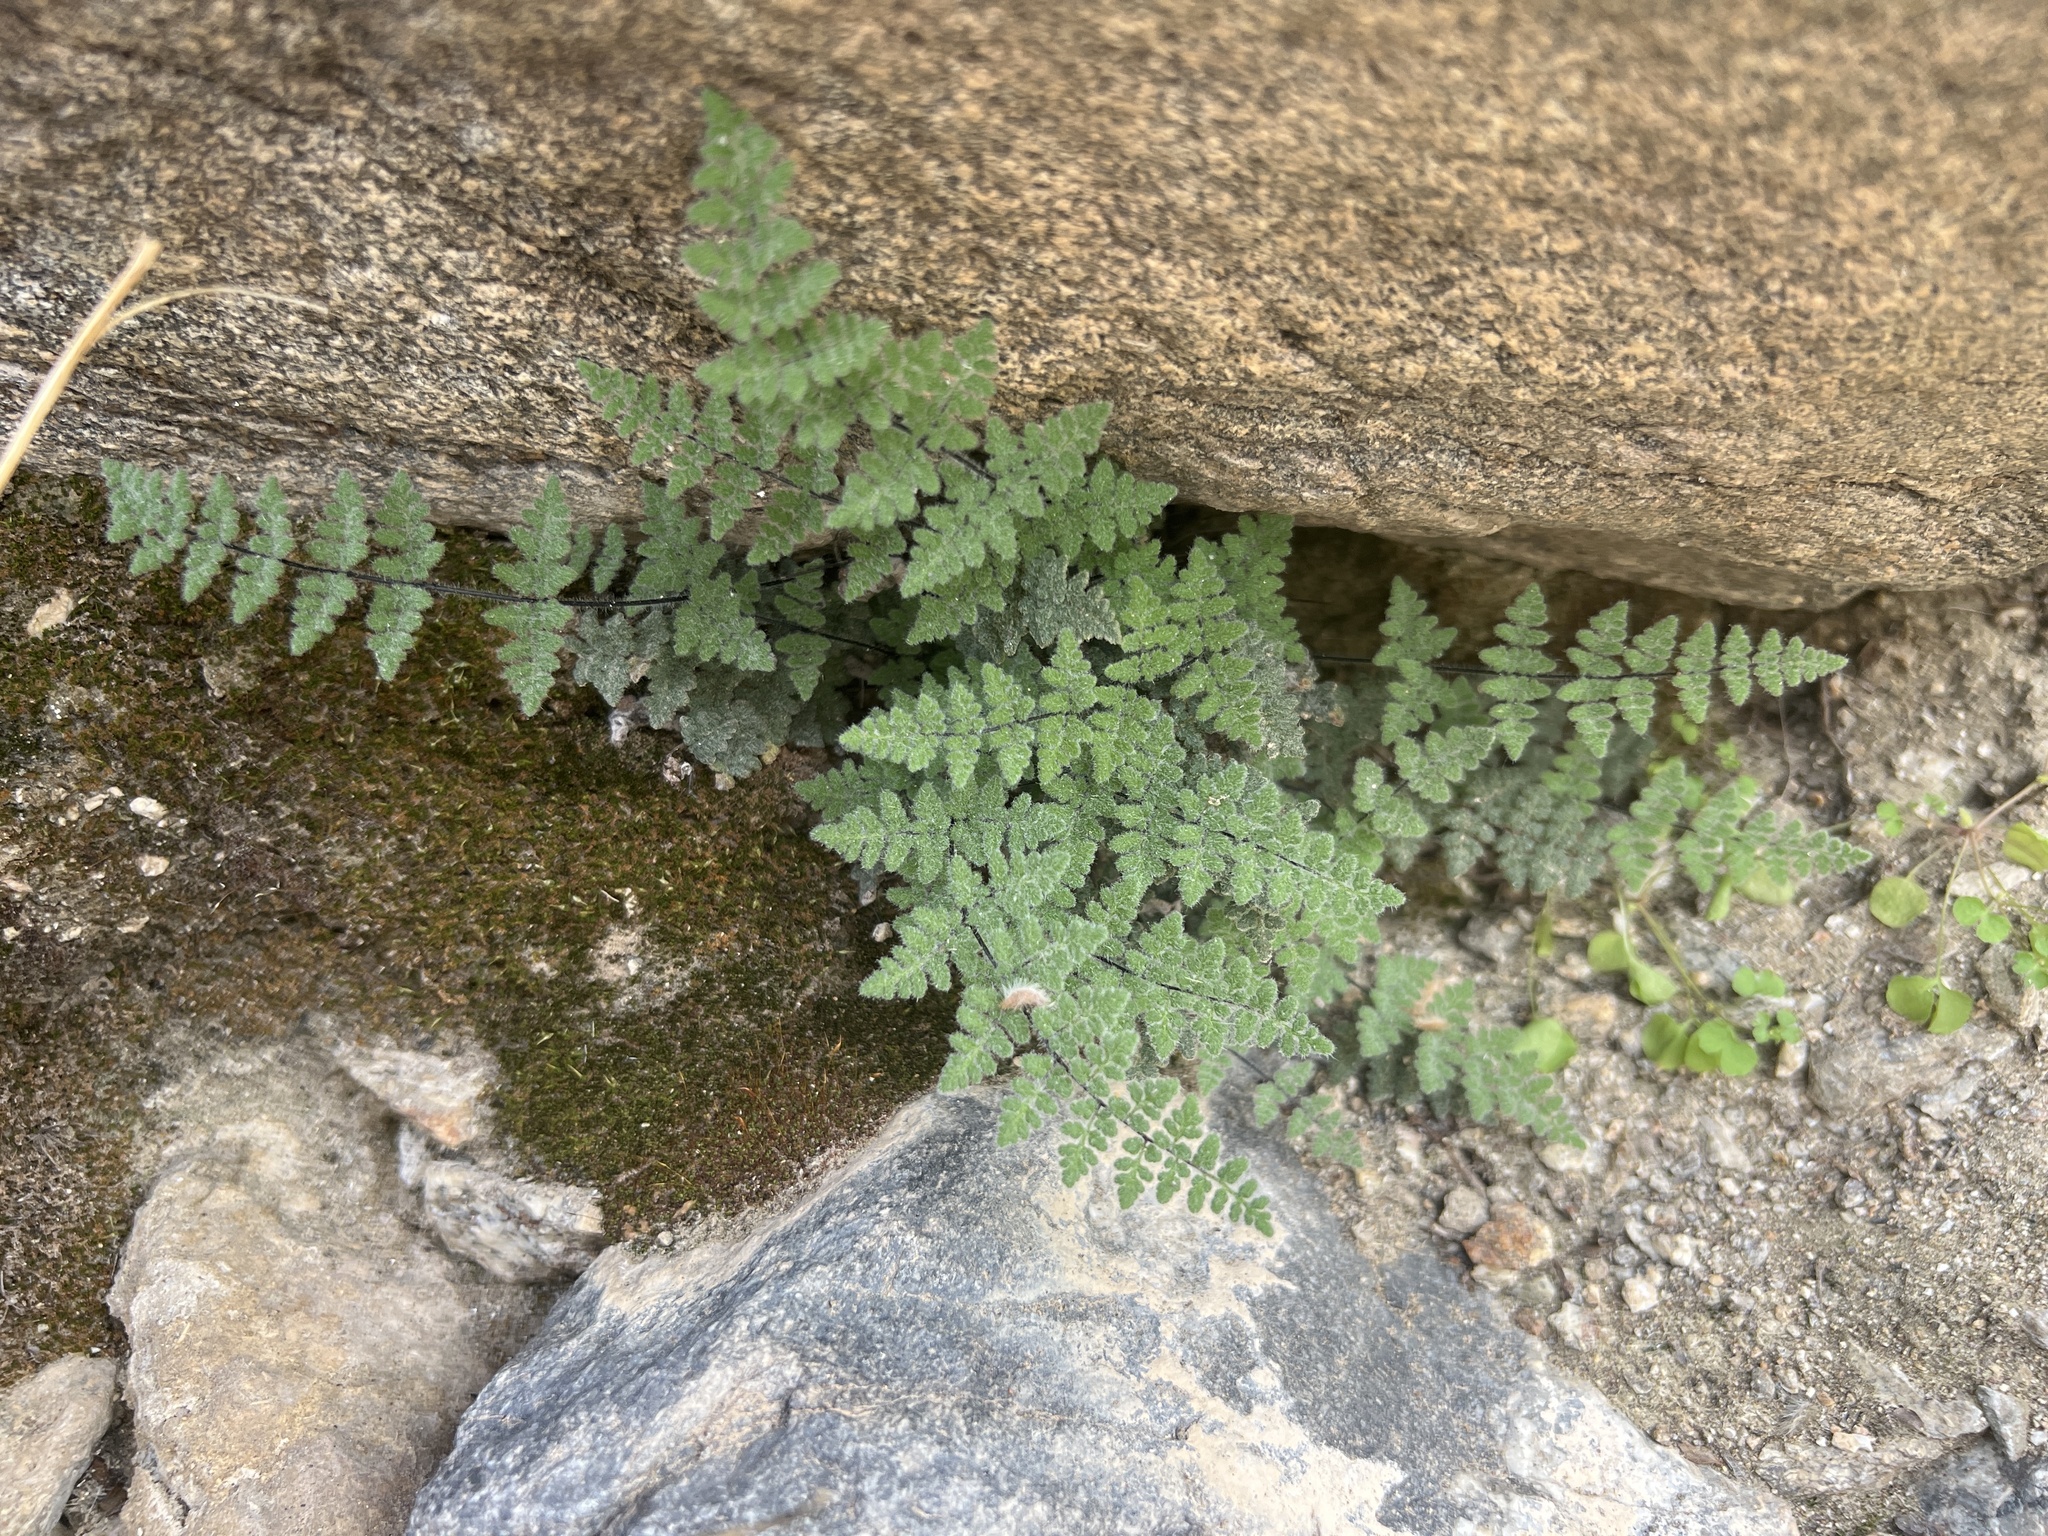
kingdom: Plantae
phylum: Tracheophyta
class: Polypodiopsida
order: Polypodiales
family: Pteridaceae
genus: Myriopteris
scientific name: Myriopteris parryi
